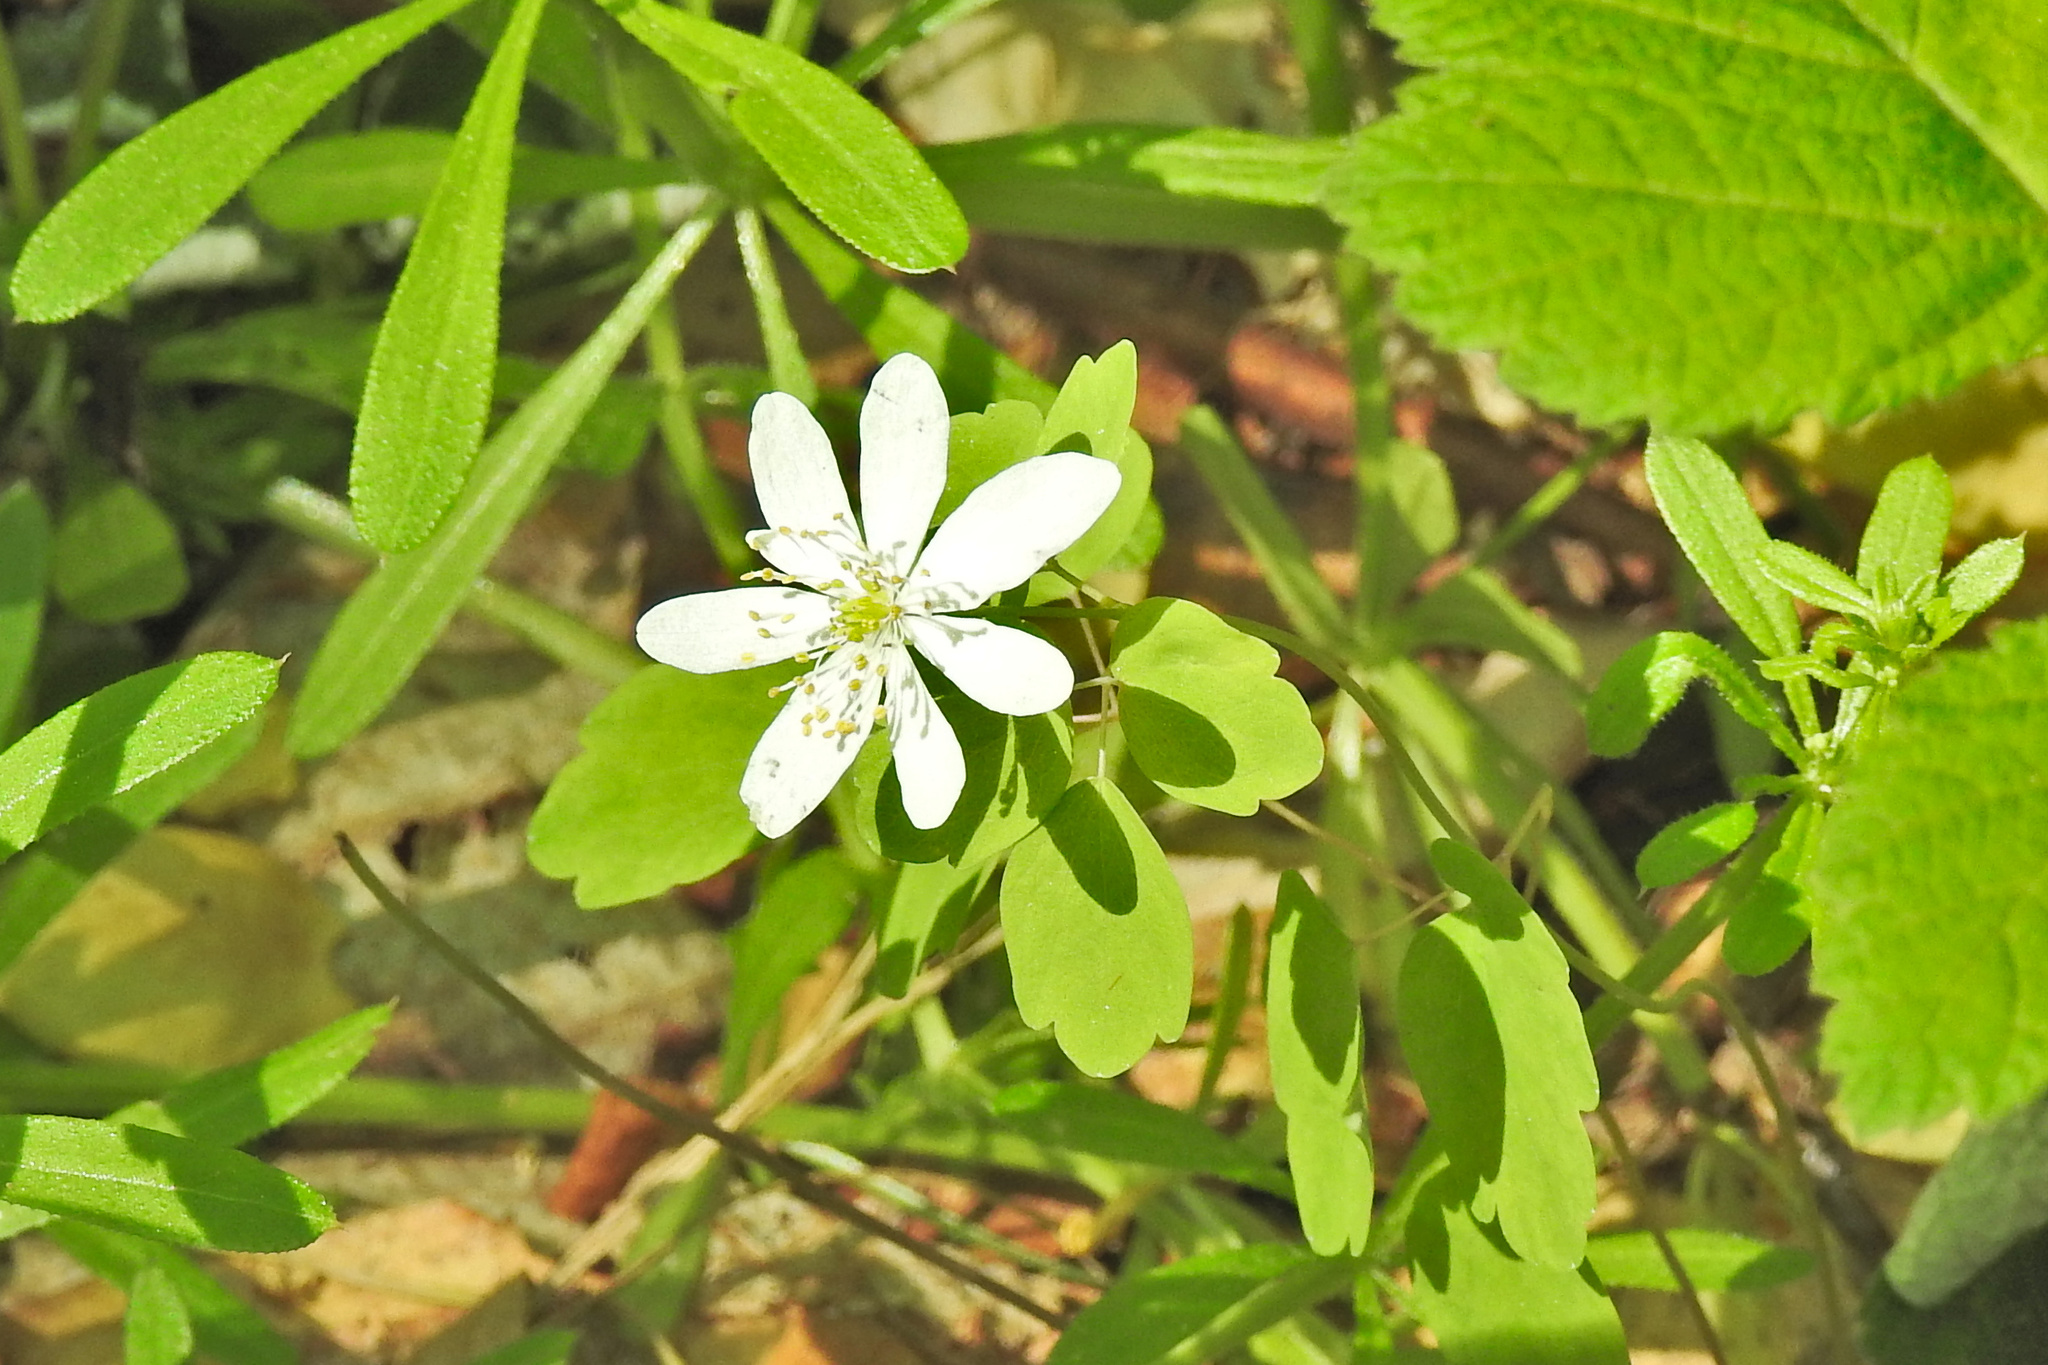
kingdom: Plantae
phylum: Tracheophyta
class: Magnoliopsida
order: Ranunculales
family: Ranunculaceae
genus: Thalictrum
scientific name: Thalictrum thalictroides
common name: Rue-anemone
